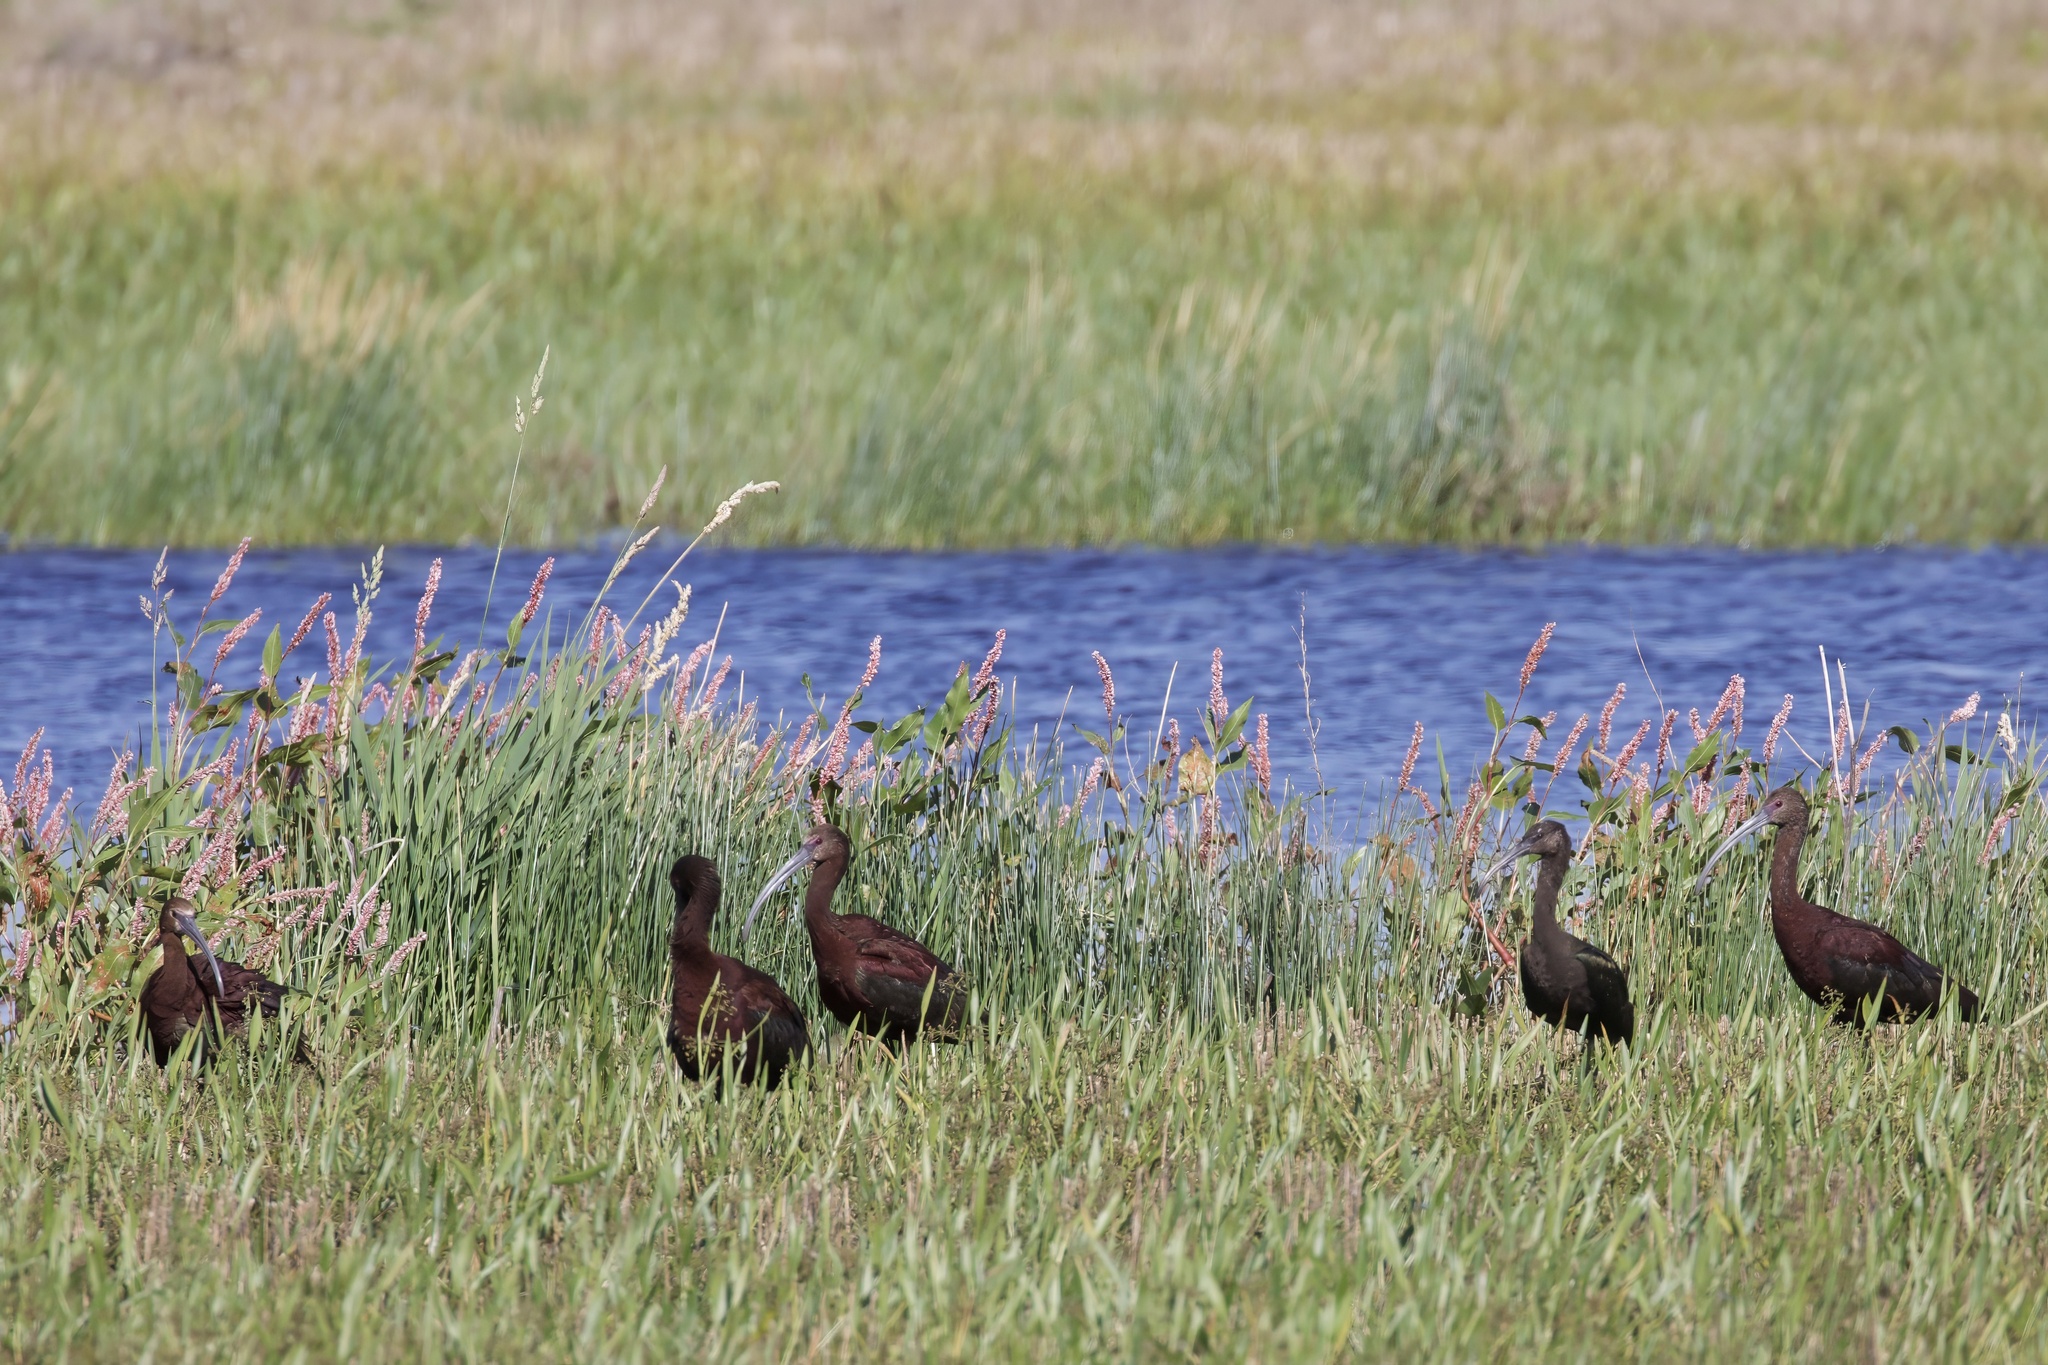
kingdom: Animalia
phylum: Chordata
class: Aves
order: Pelecaniformes
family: Threskiornithidae
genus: Plegadis
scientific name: Plegadis chihi
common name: White-faced ibis
